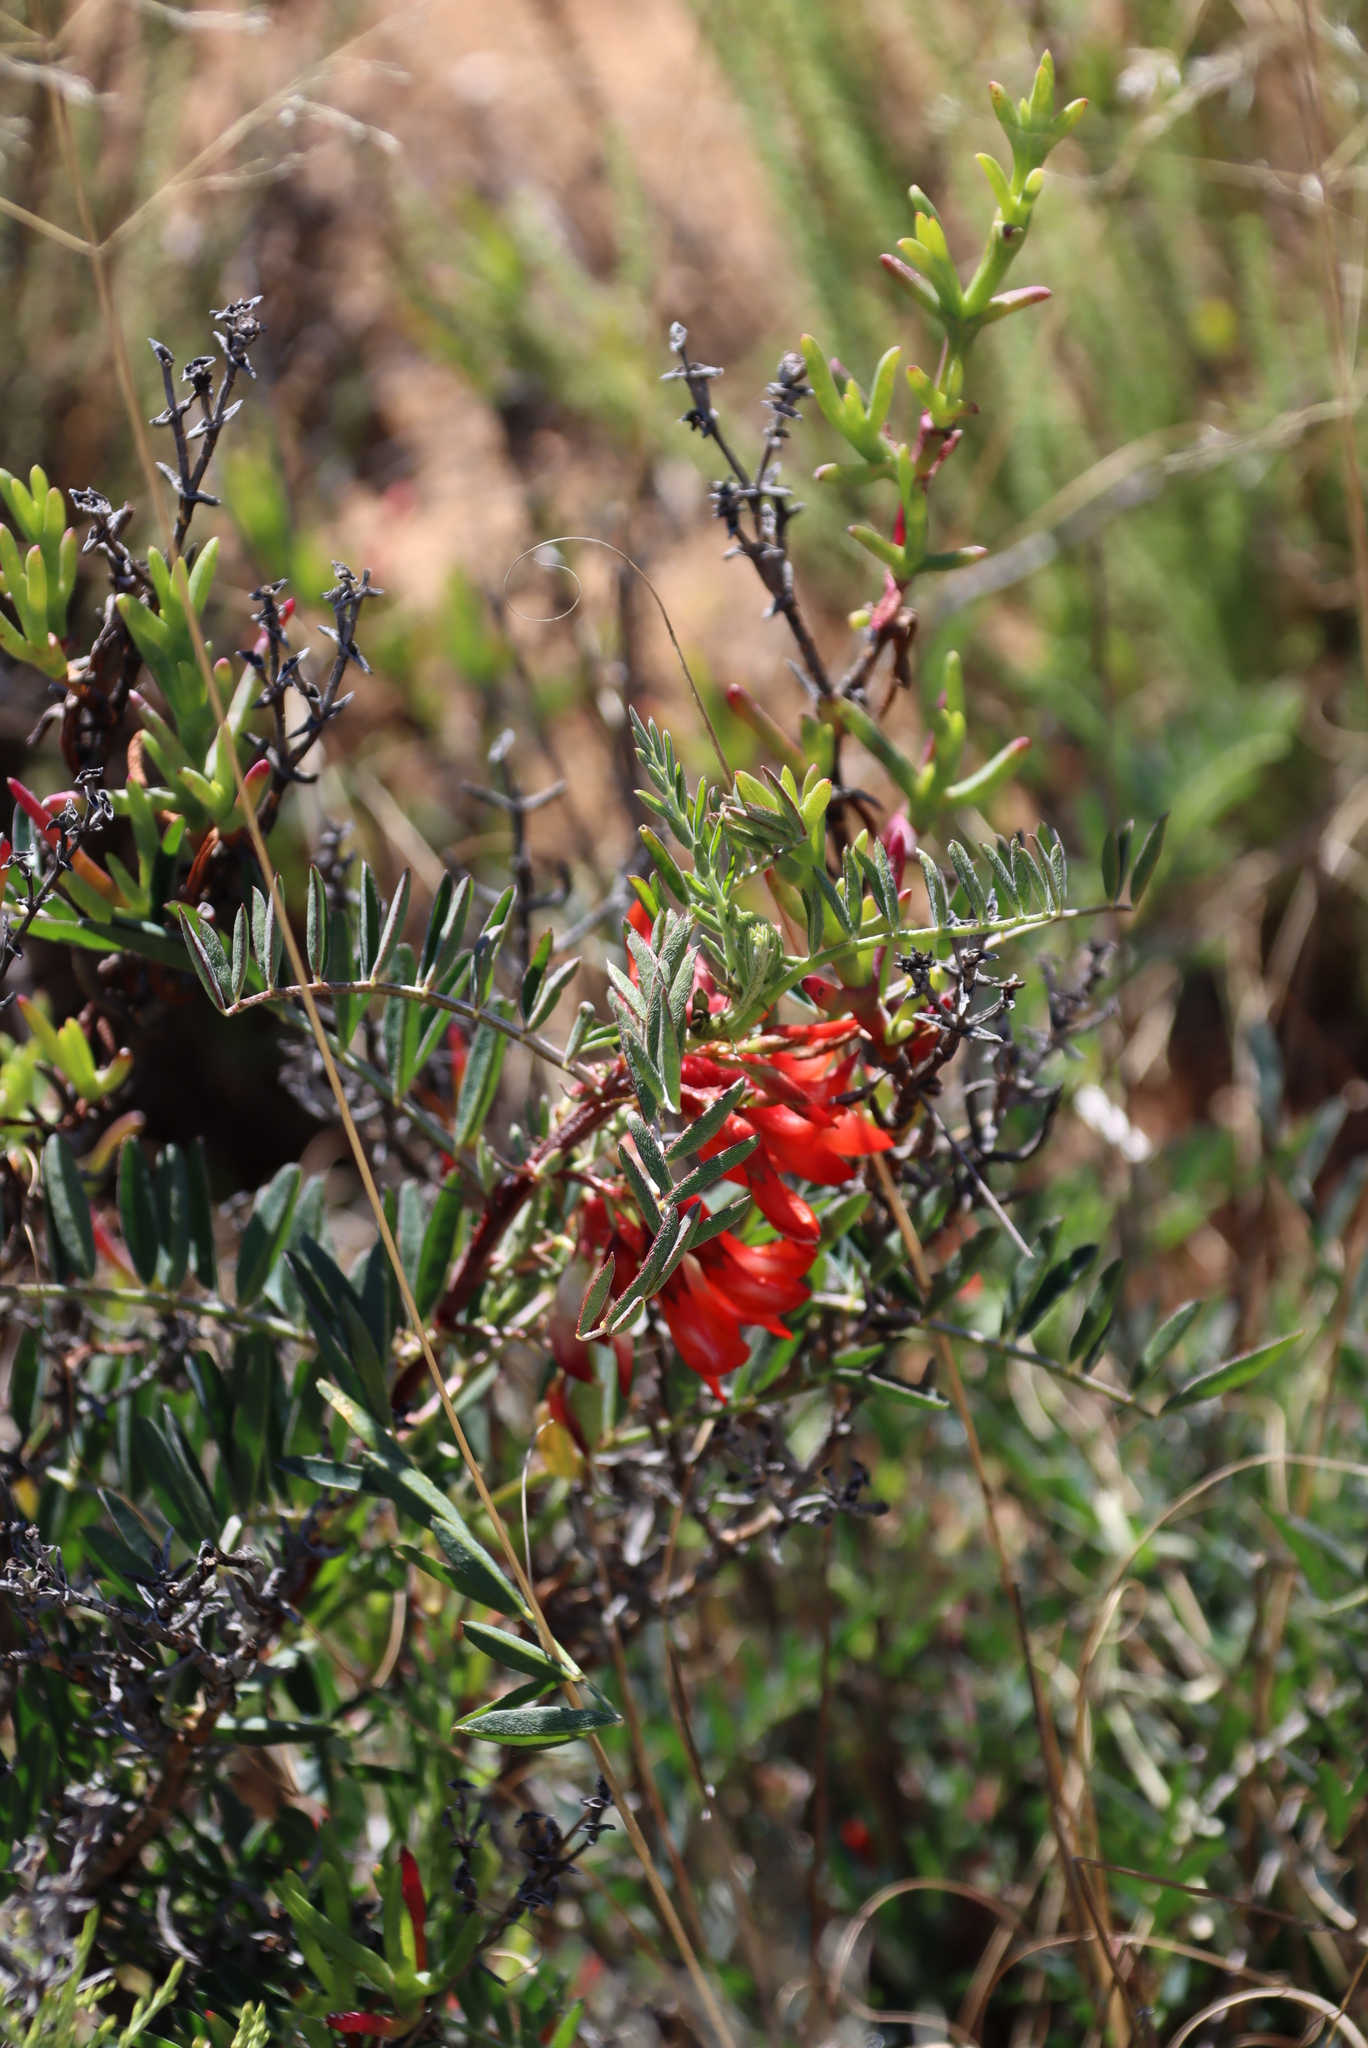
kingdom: Plantae
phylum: Tracheophyta
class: Magnoliopsida
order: Fabales
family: Fabaceae
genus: Lessertia
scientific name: Lessertia frutescens
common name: Balloon-pea
